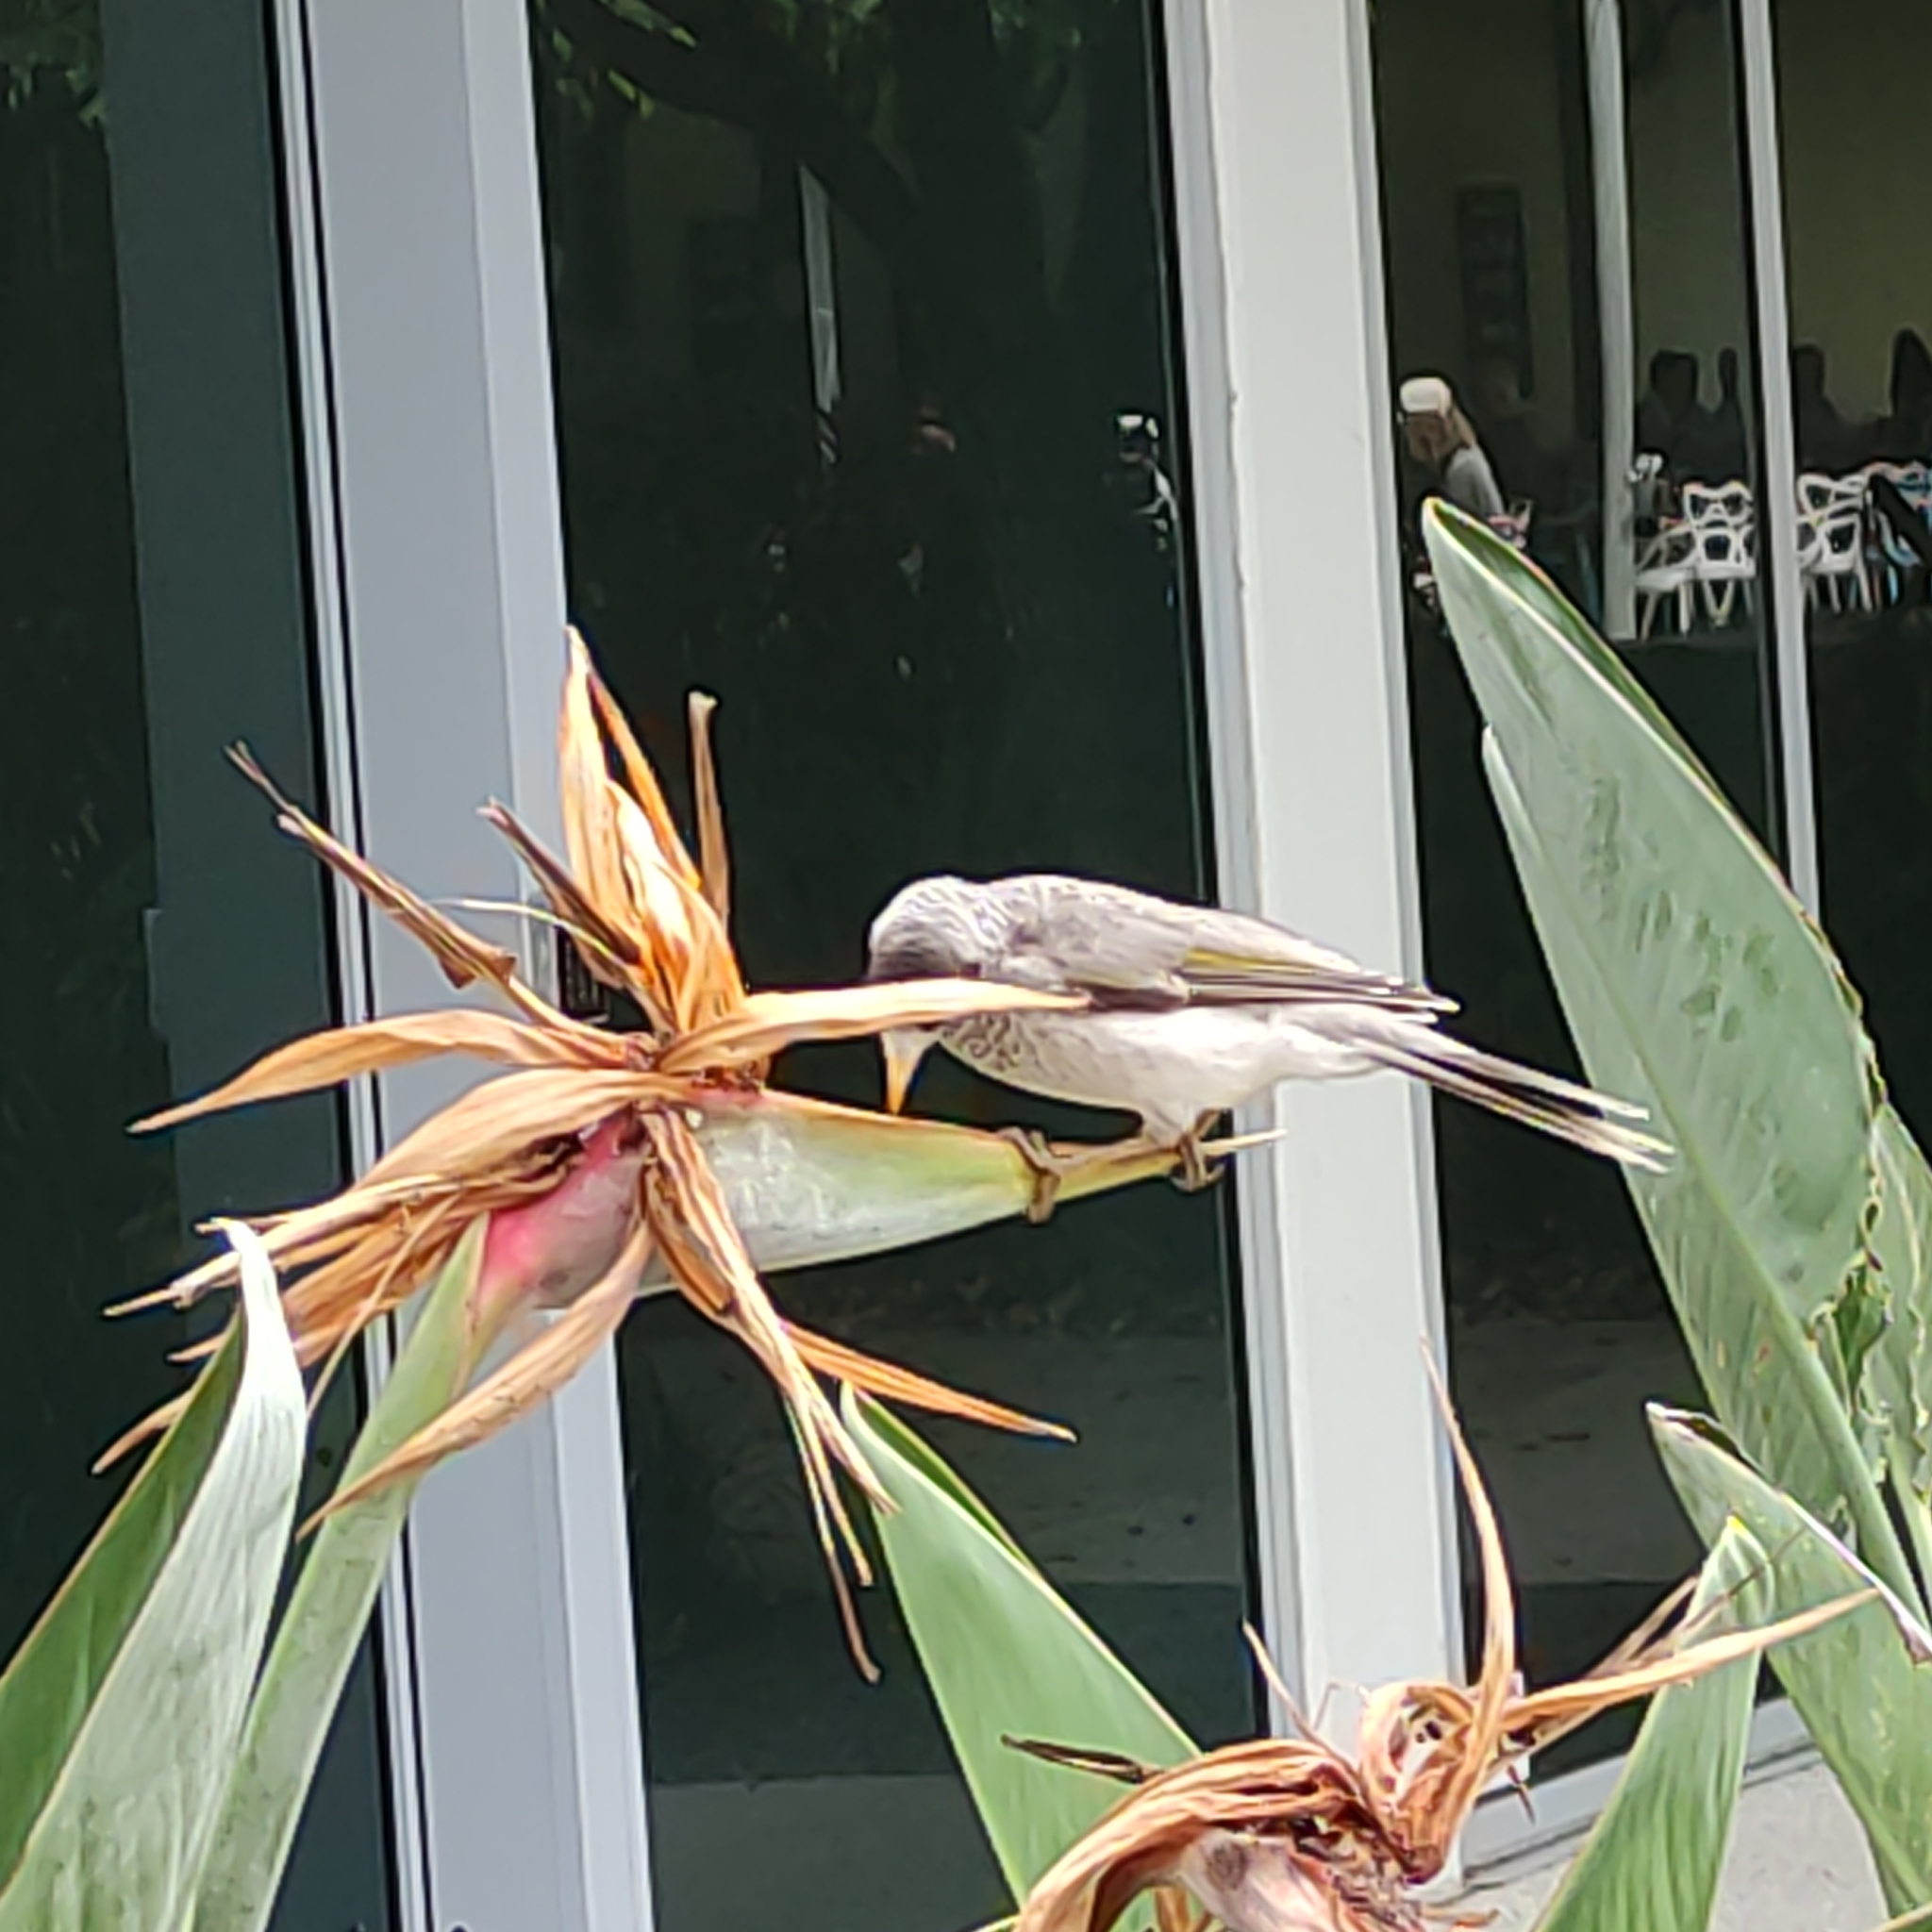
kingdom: Animalia
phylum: Chordata
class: Aves
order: Passeriformes
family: Meliphagidae
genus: Manorina
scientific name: Manorina melanocephala
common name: Noisy miner
